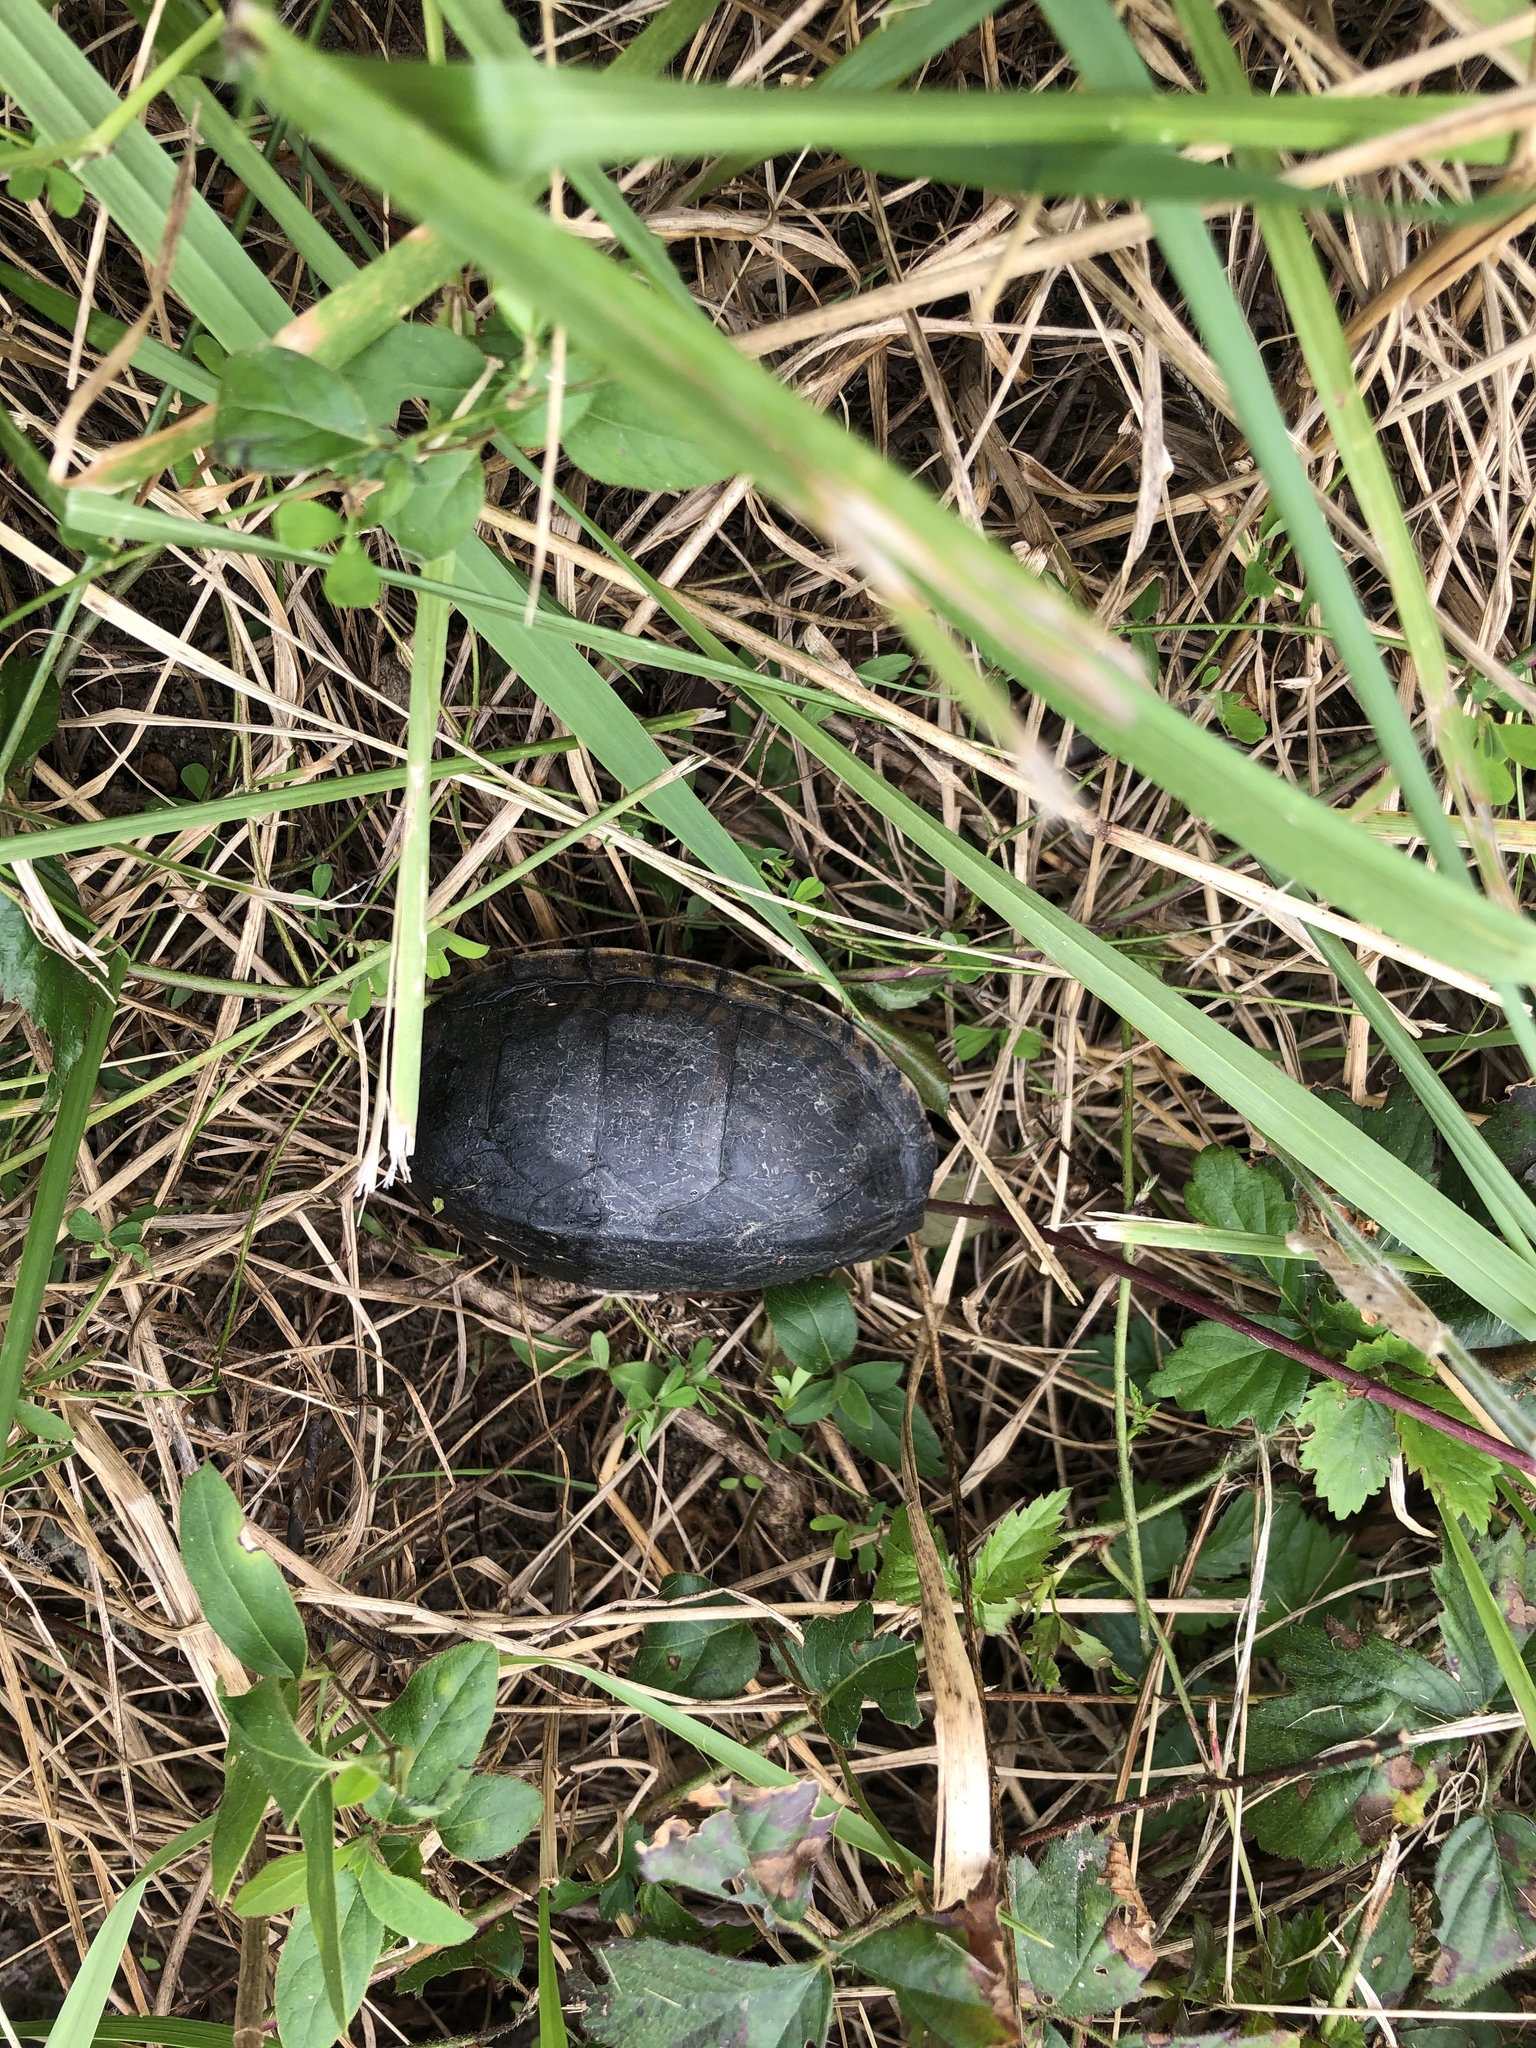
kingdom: Animalia
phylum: Chordata
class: Testudines
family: Kinosternidae
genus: Sternotherus
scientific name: Sternotherus odoratus
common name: Common musk turtle
